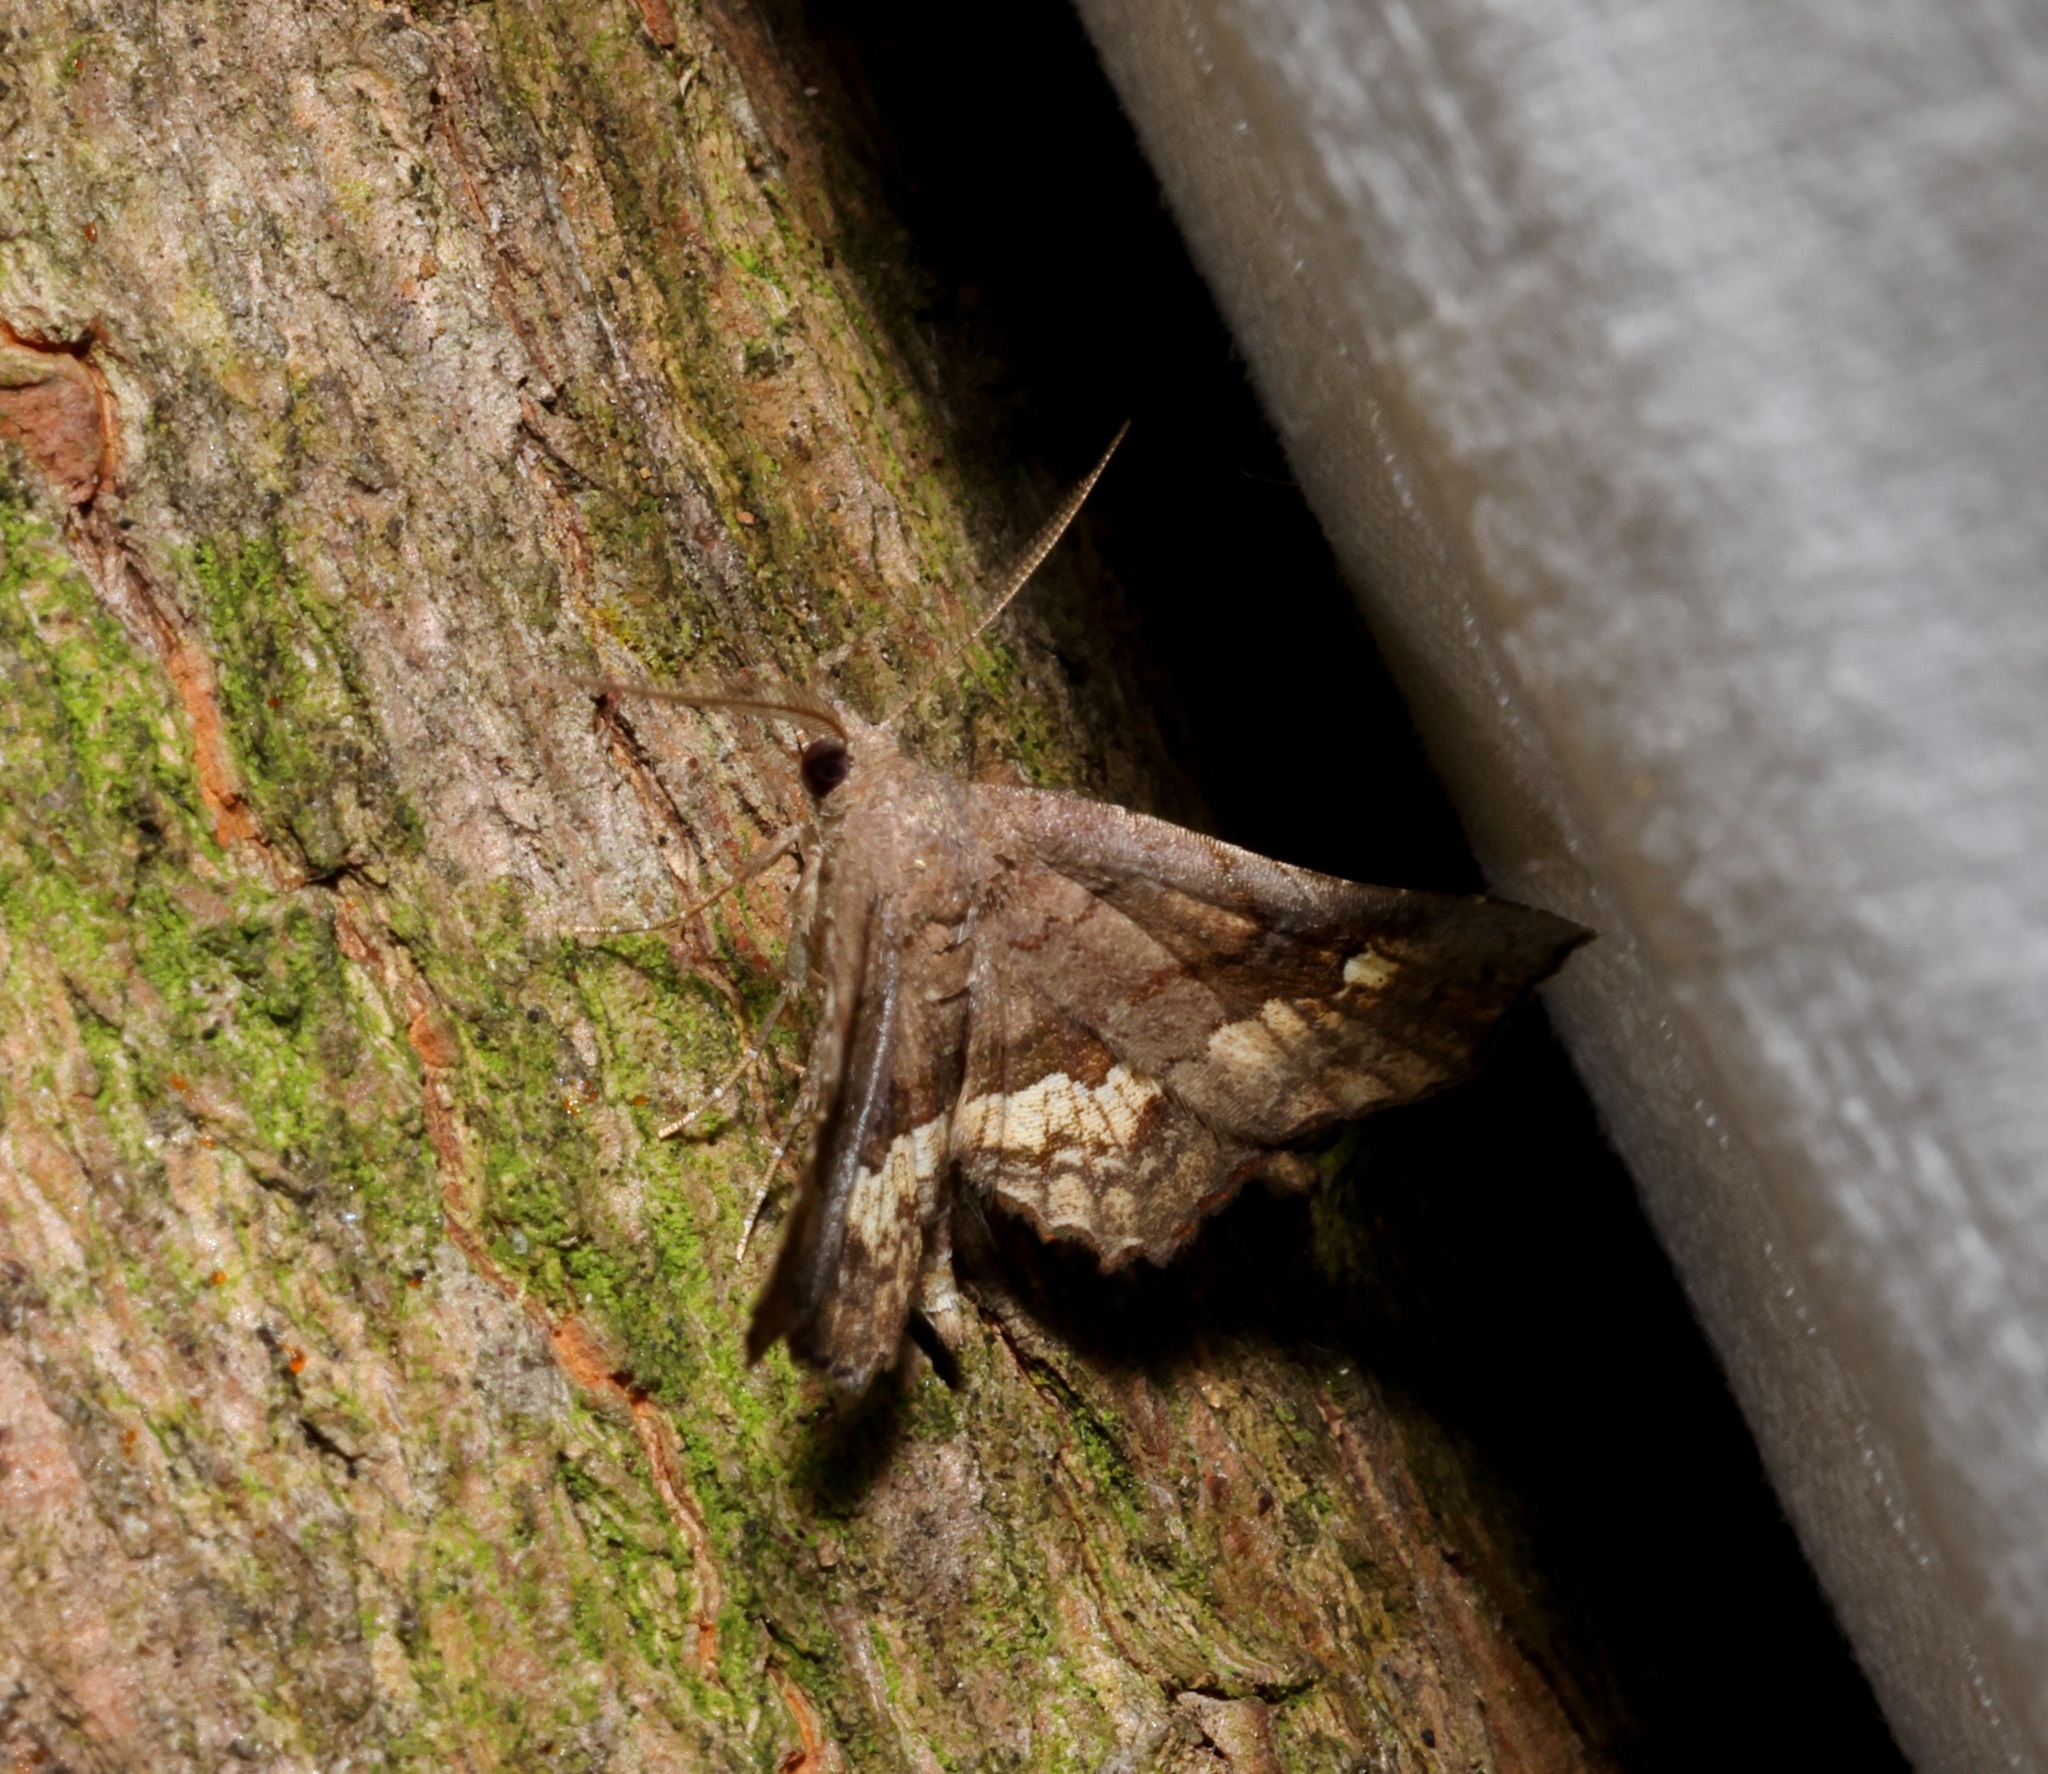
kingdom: Animalia
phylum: Arthropoda
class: Insecta
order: Lepidoptera
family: Erebidae
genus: Throana
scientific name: Throana pectinifer
